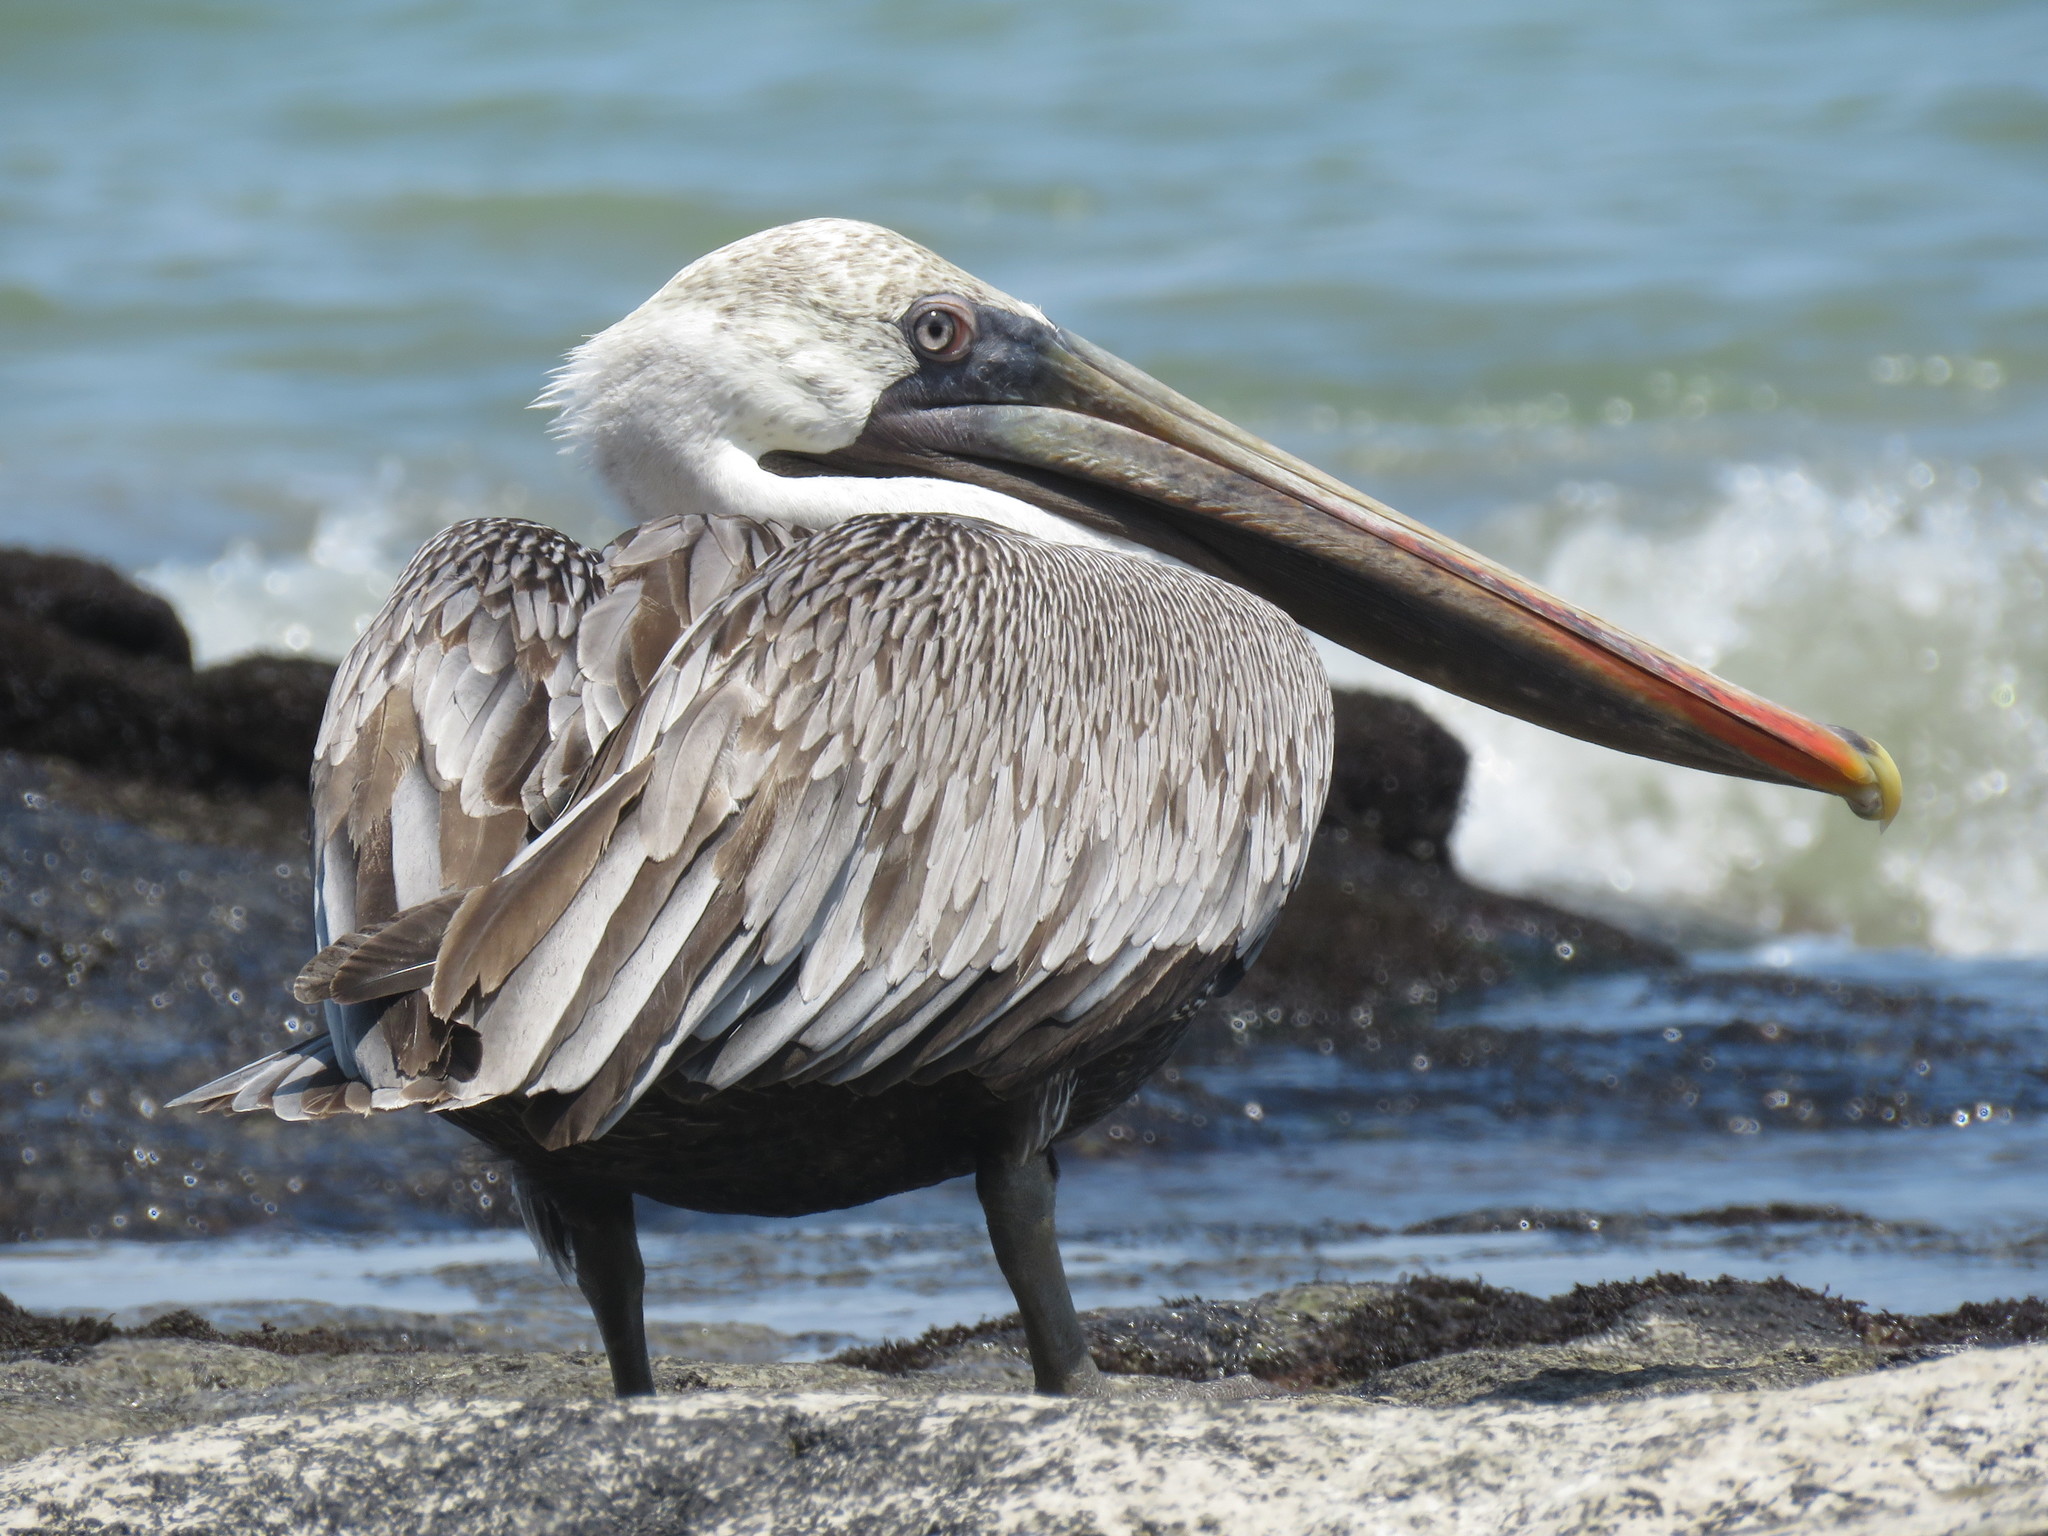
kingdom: Animalia
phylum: Chordata
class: Aves
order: Pelecaniformes
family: Pelecanidae
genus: Pelecanus
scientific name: Pelecanus occidentalis
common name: Brown pelican
